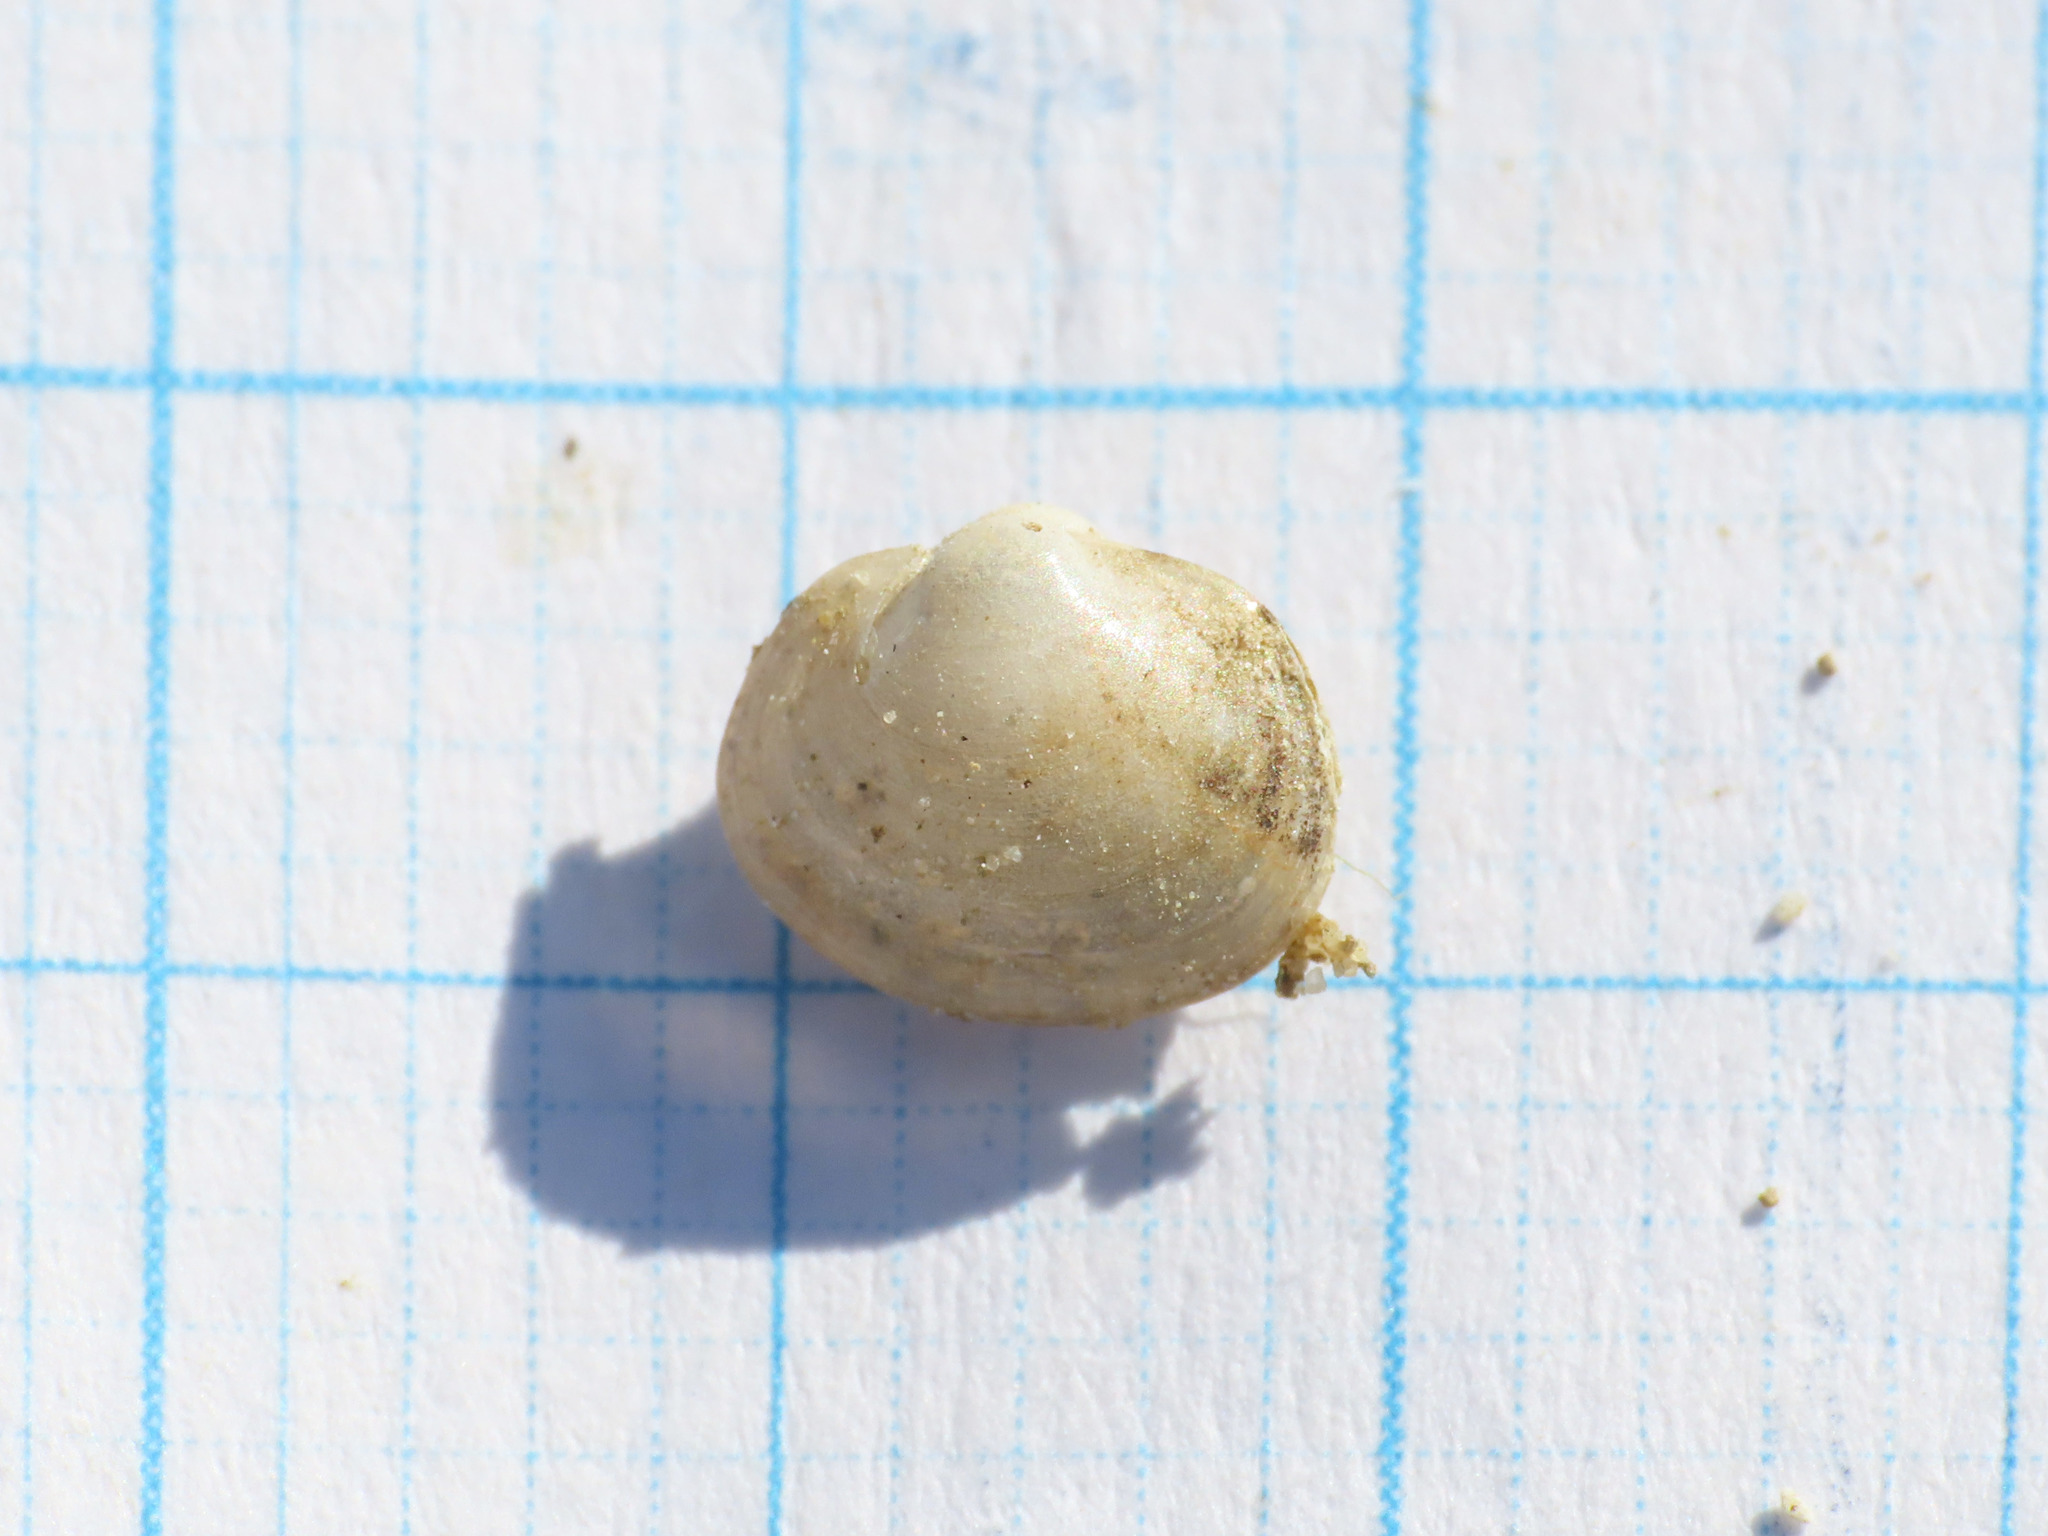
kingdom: Animalia
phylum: Mollusca
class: Bivalvia
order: Sphaeriida
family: Sphaeriidae
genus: Musculium
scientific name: Musculium lacustre
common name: Lake fingernailclam
